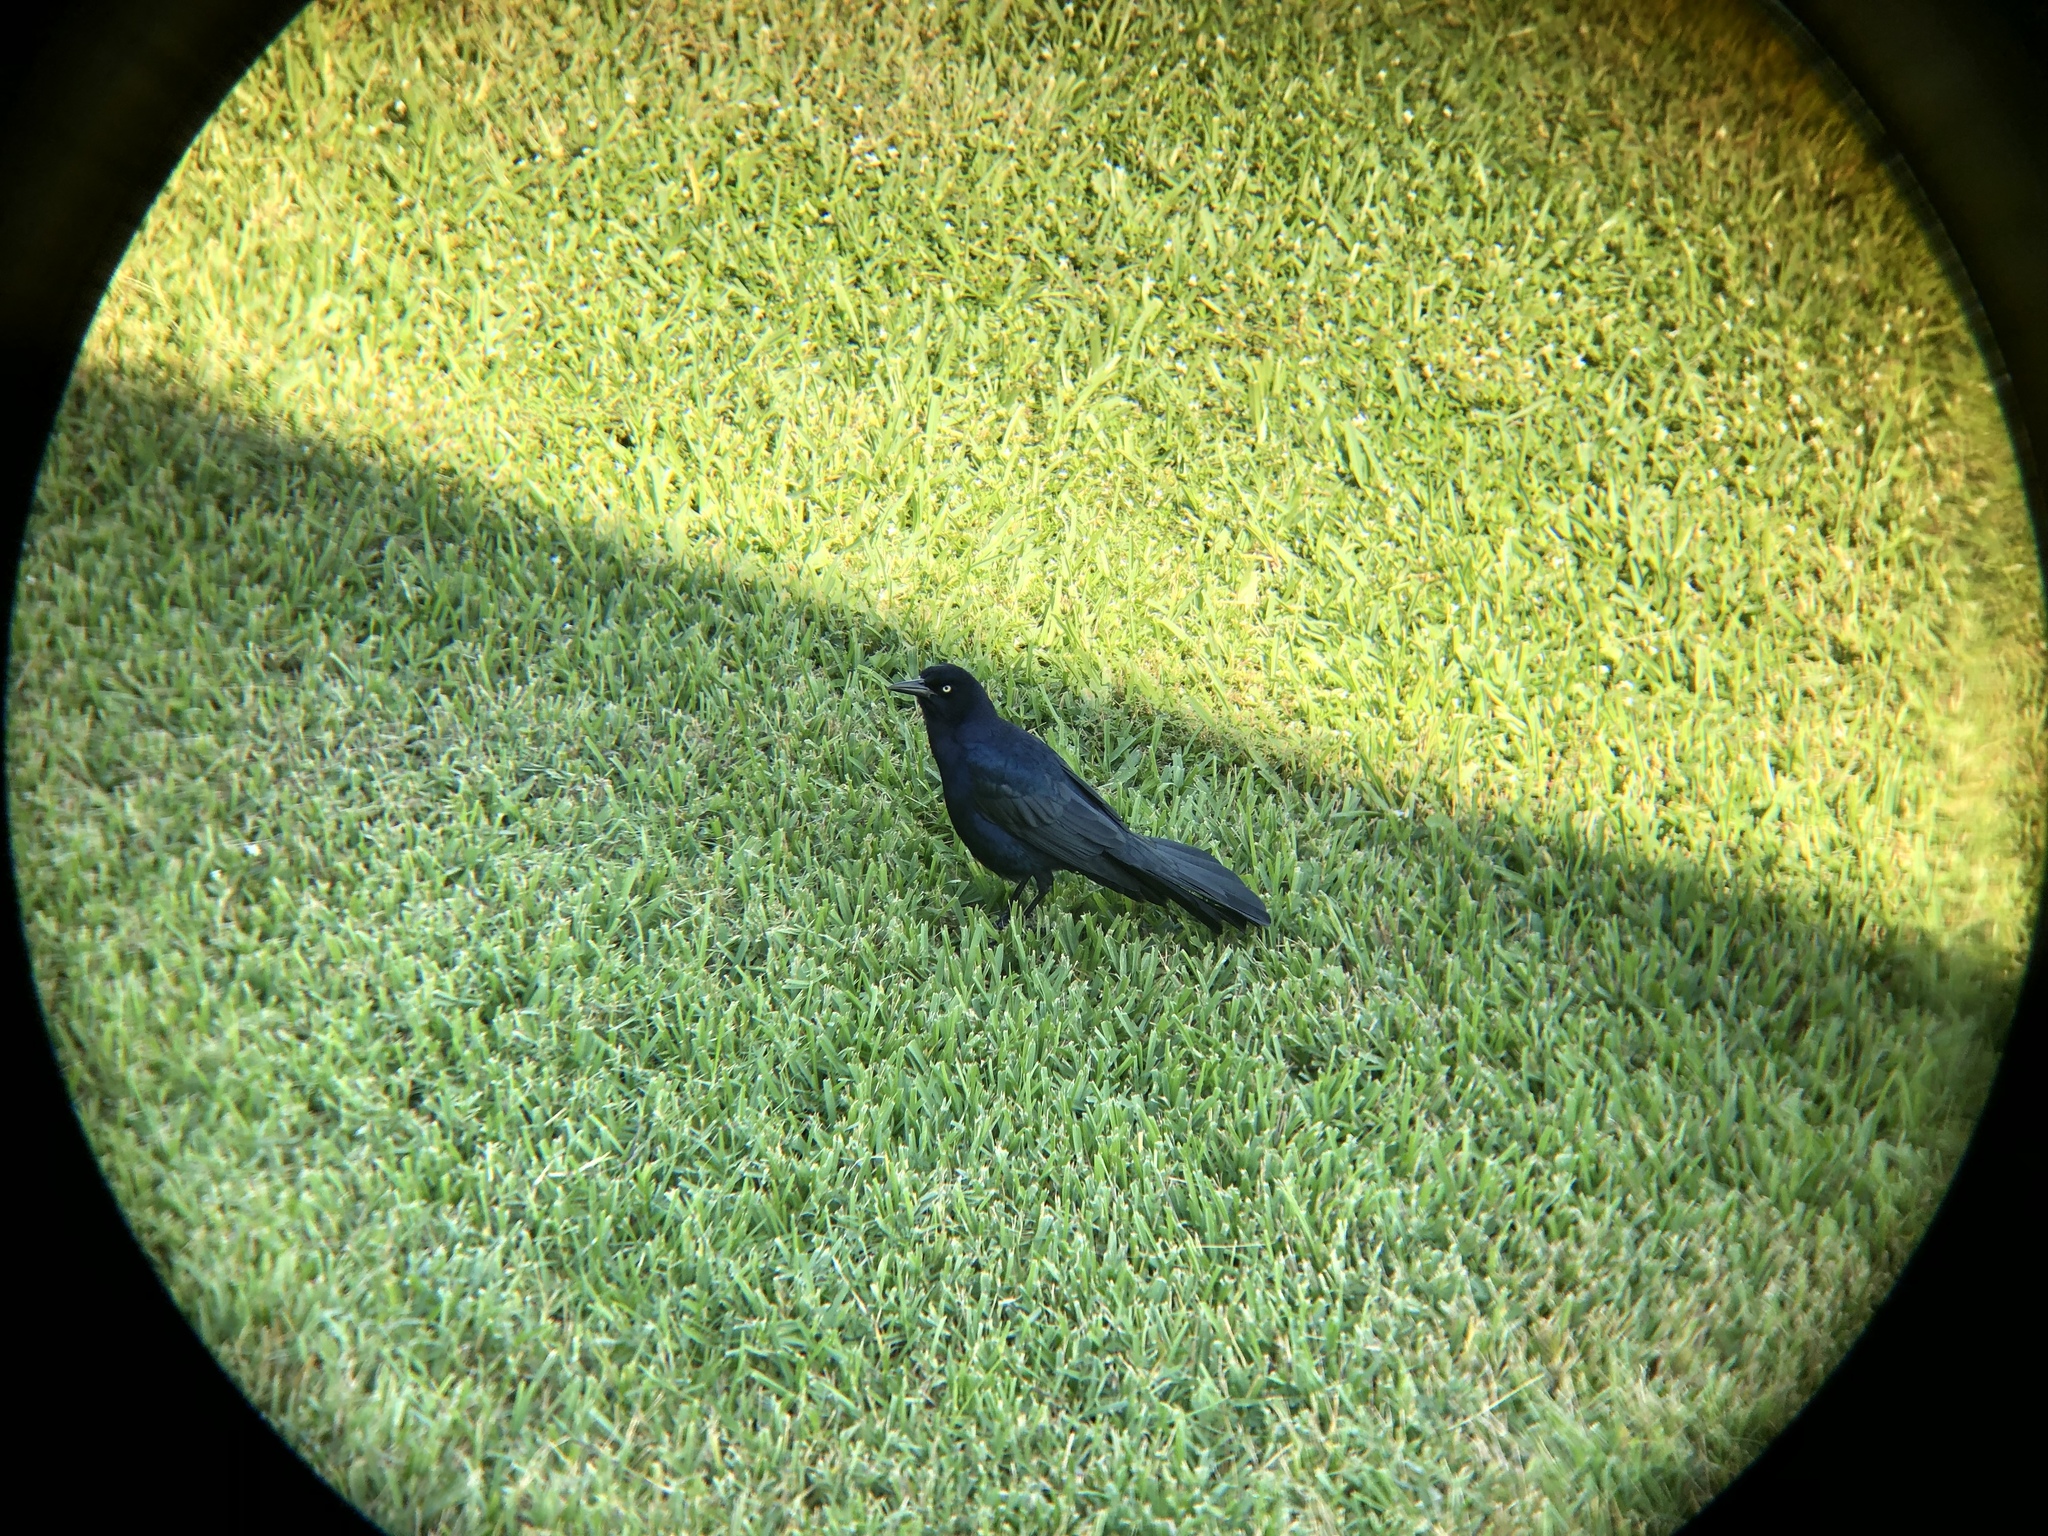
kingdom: Animalia
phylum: Chordata
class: Aves
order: Passeriformes
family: Icteridae
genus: Quiscalus
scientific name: Quiscalus mexicanus
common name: Great-tailed grackle
